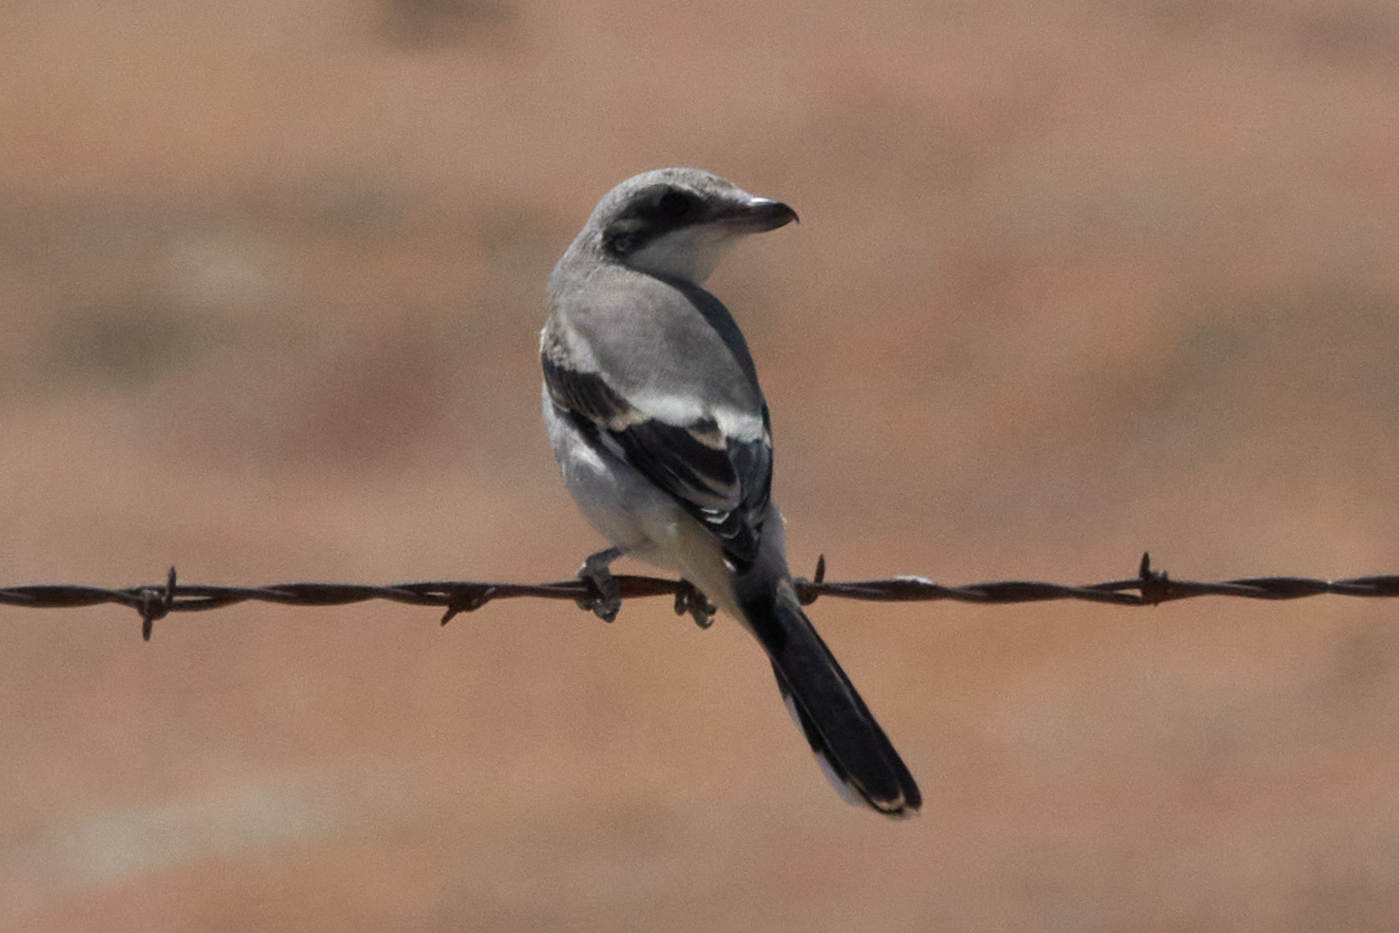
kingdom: Animalia
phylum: Chordata
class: Aves
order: Passeriformes
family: Laniidae
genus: Lanius
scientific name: Lanius ludovicianus
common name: Loggerhead shrike
